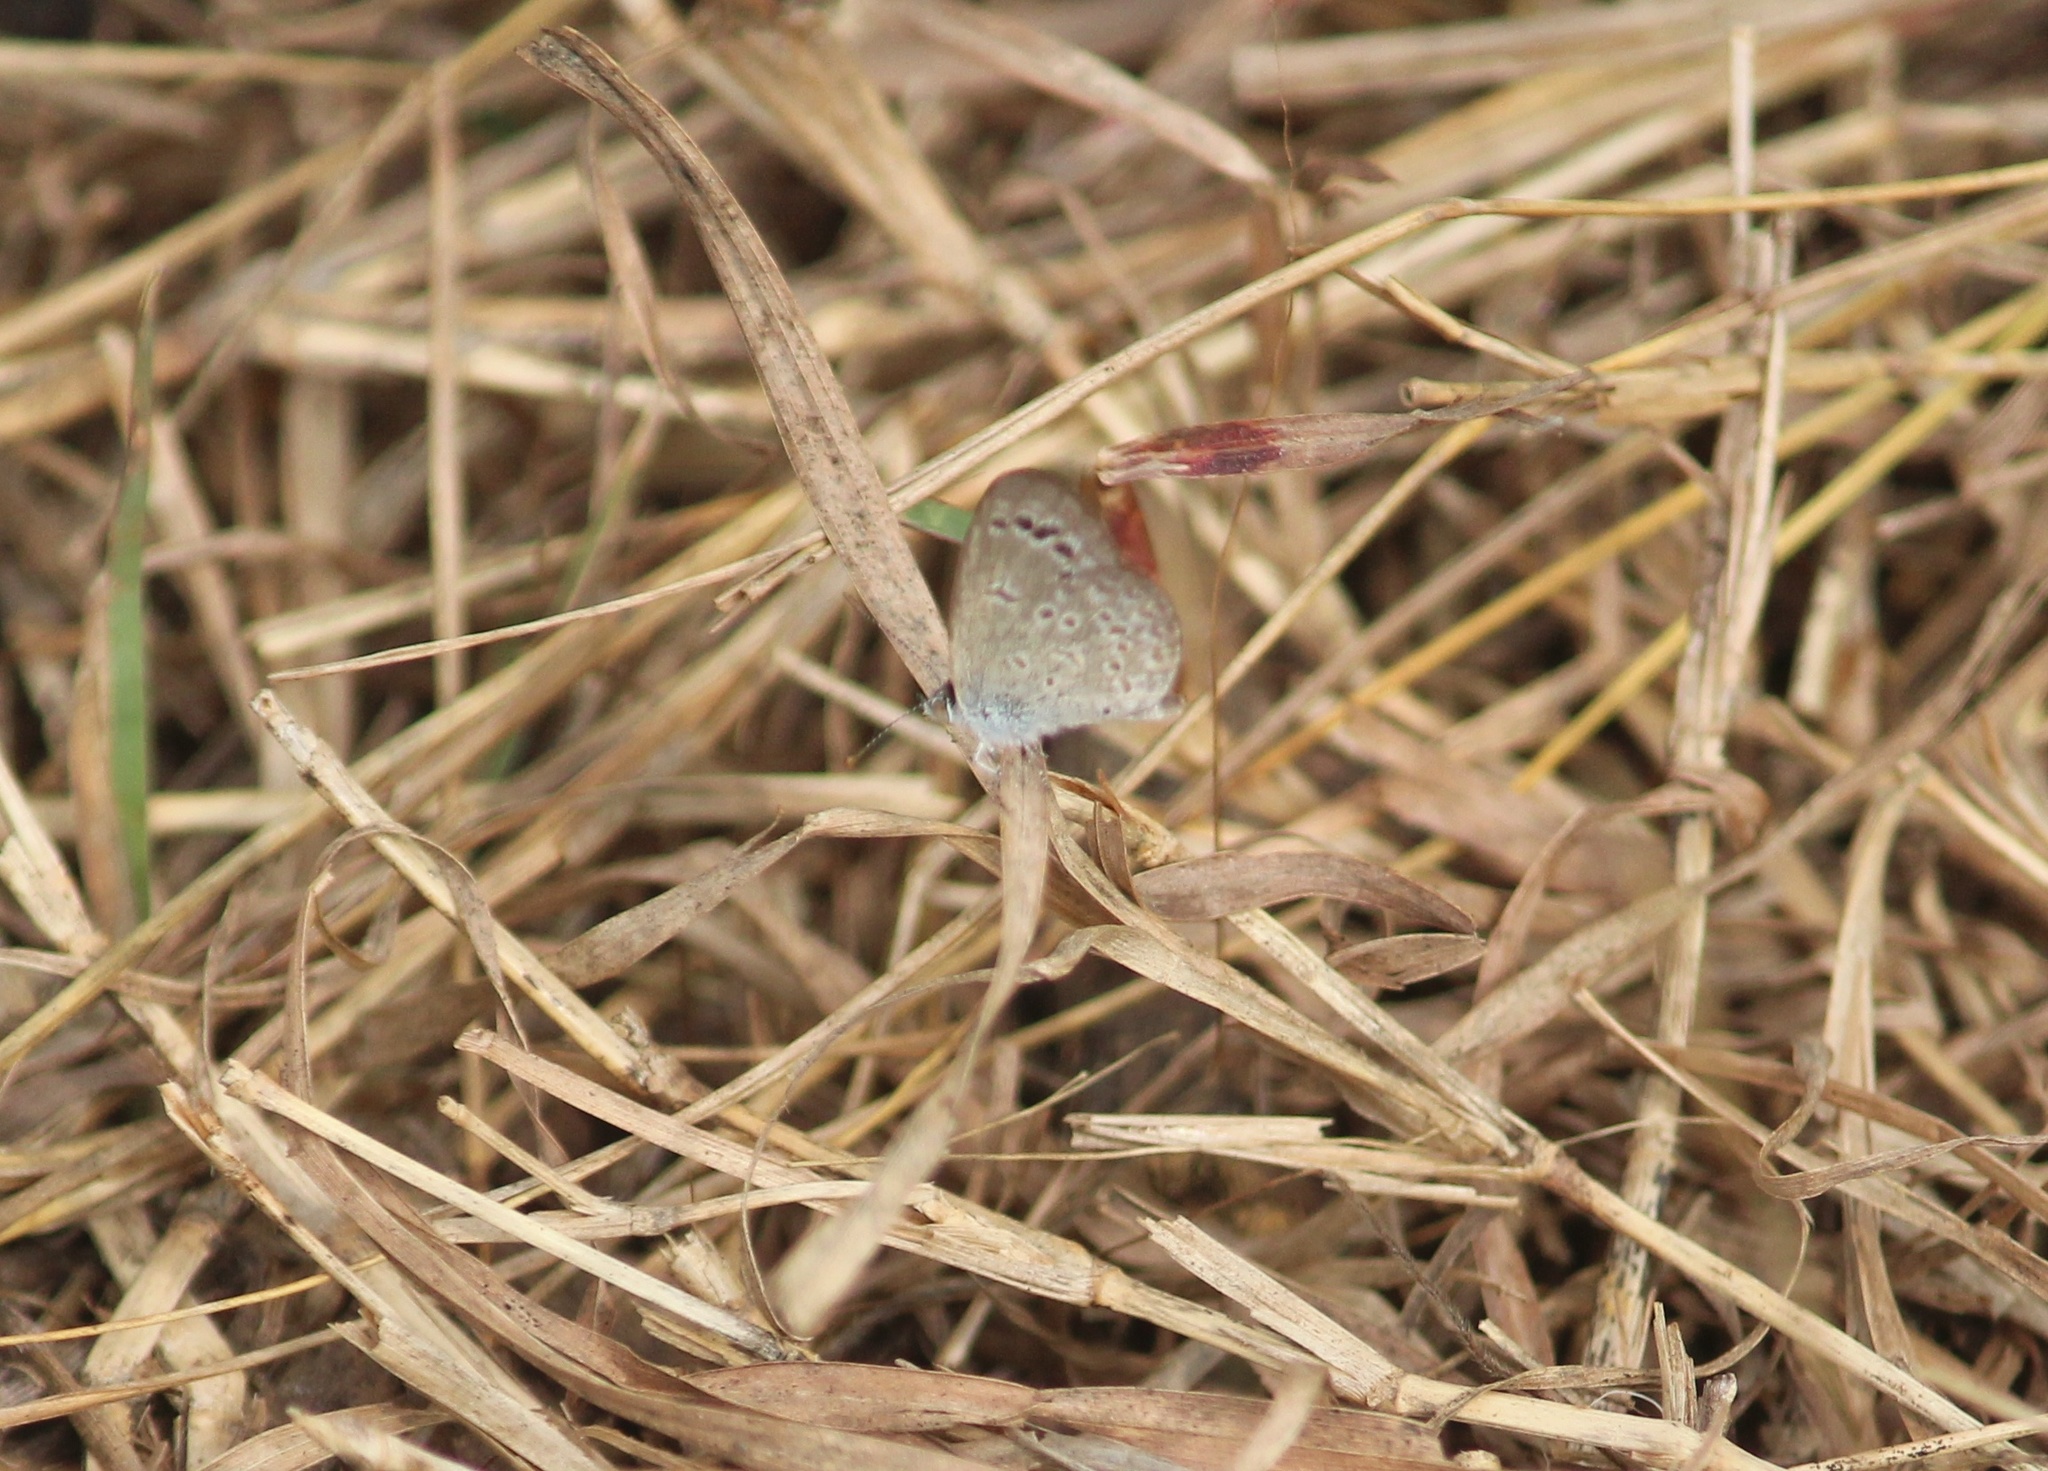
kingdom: Animalia
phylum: Arthropoda
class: Insecta
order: Lepidoptera
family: Lycaenidae
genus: Zizina
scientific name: Zizina otis
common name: Lesser grass blue
